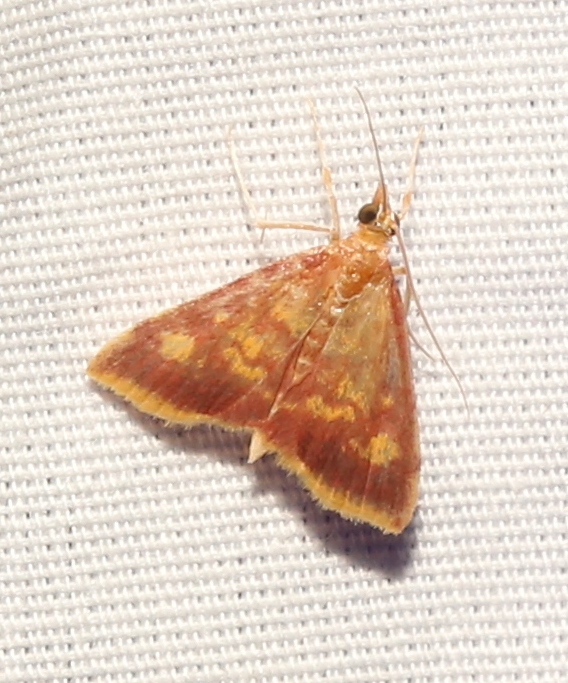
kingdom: Animalia
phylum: Arthropoda
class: Insecta
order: Lepidoptera
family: Crambidae
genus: Pyrausta
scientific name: Pyrausta acrionalis
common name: Mint-loving pyrausta moth
